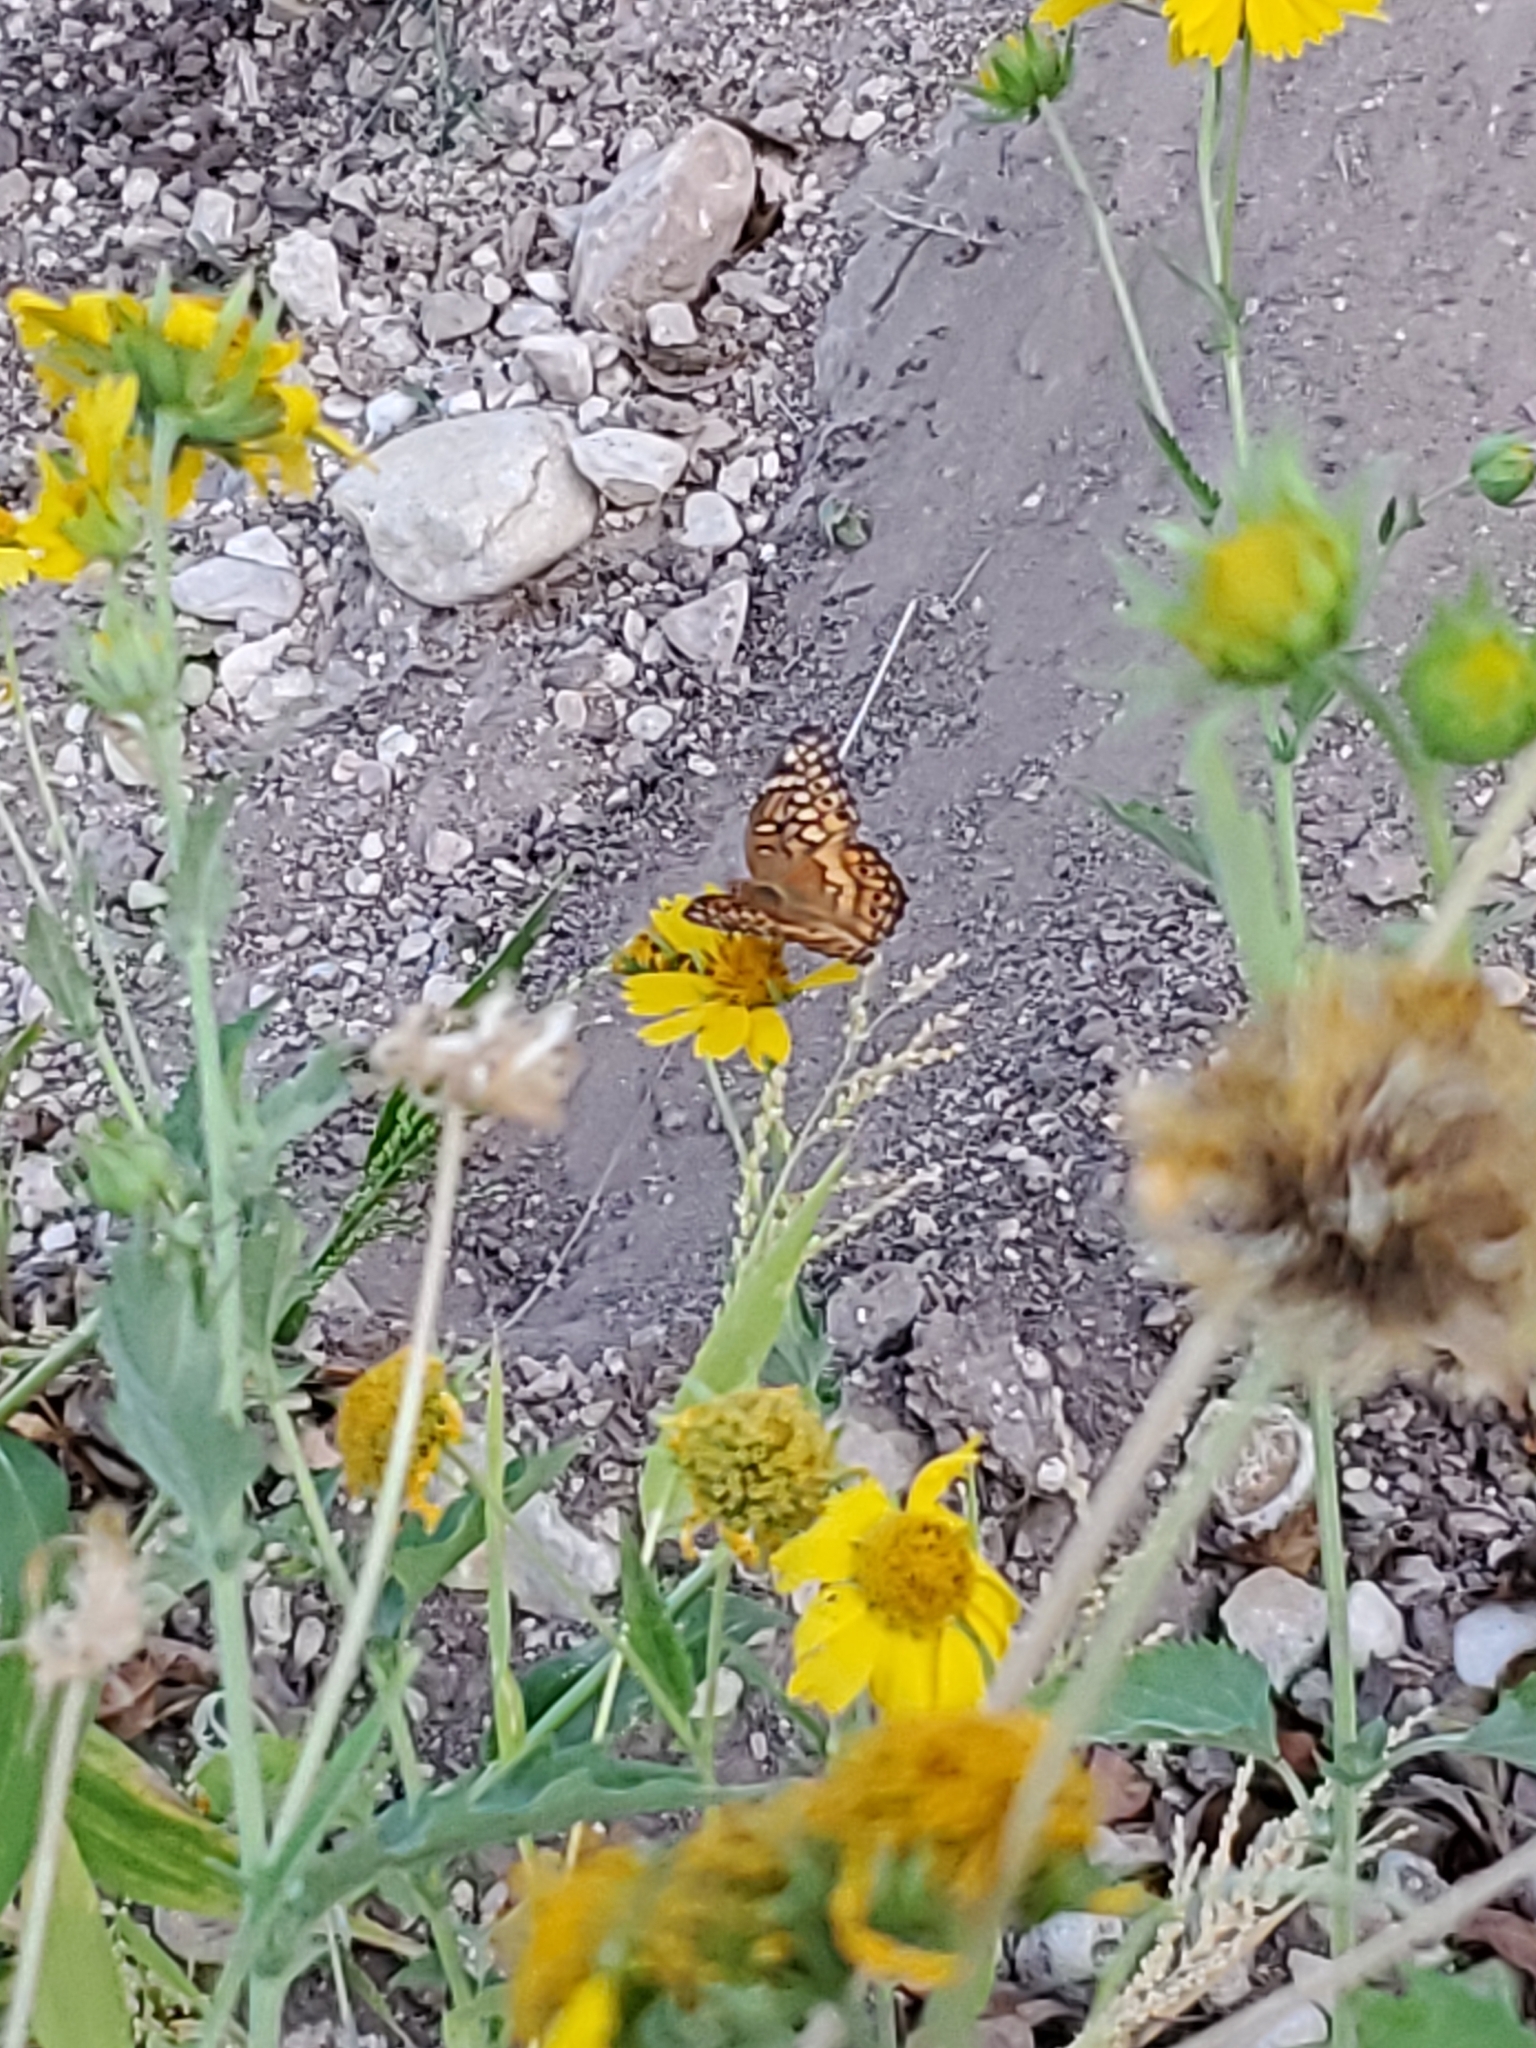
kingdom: Animalia
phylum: Arthropoda
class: Insecta
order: Lepidoptera
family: Nymphalidae
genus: Euptoieta
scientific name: Euptoieta claudia
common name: Variegated fritillary
